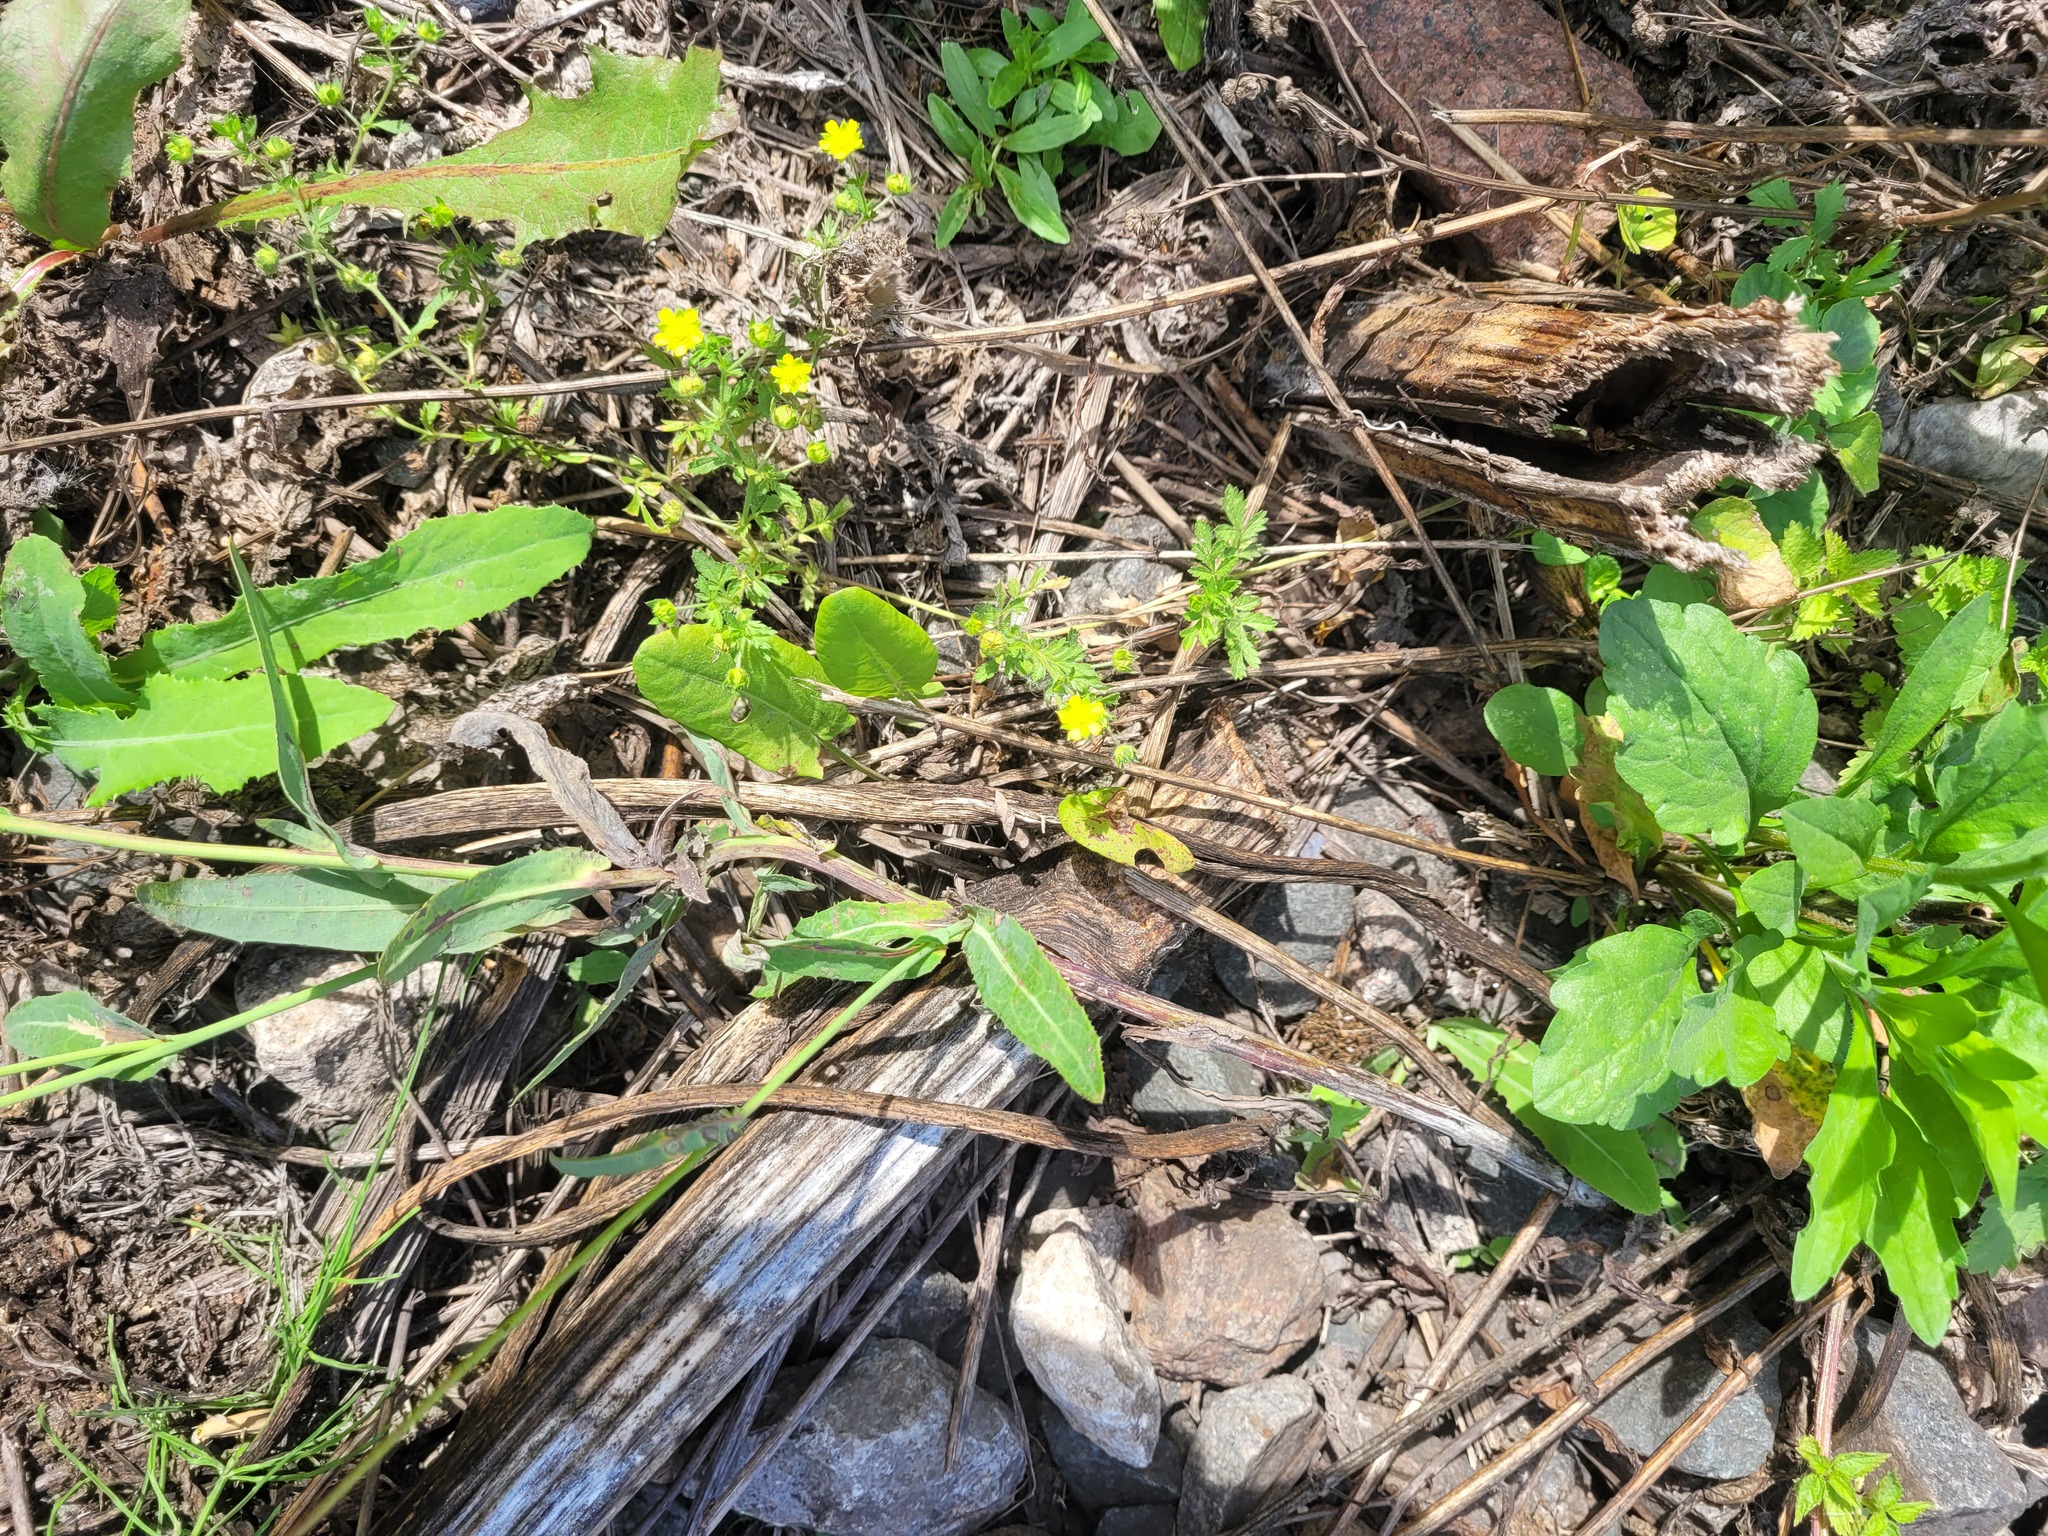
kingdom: Plantae
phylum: Tracheophyta
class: Magnoliopsida
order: Rosales
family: Rosaceae
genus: Potentilla
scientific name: Potentilla supina
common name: Prostrate cinquefoil
